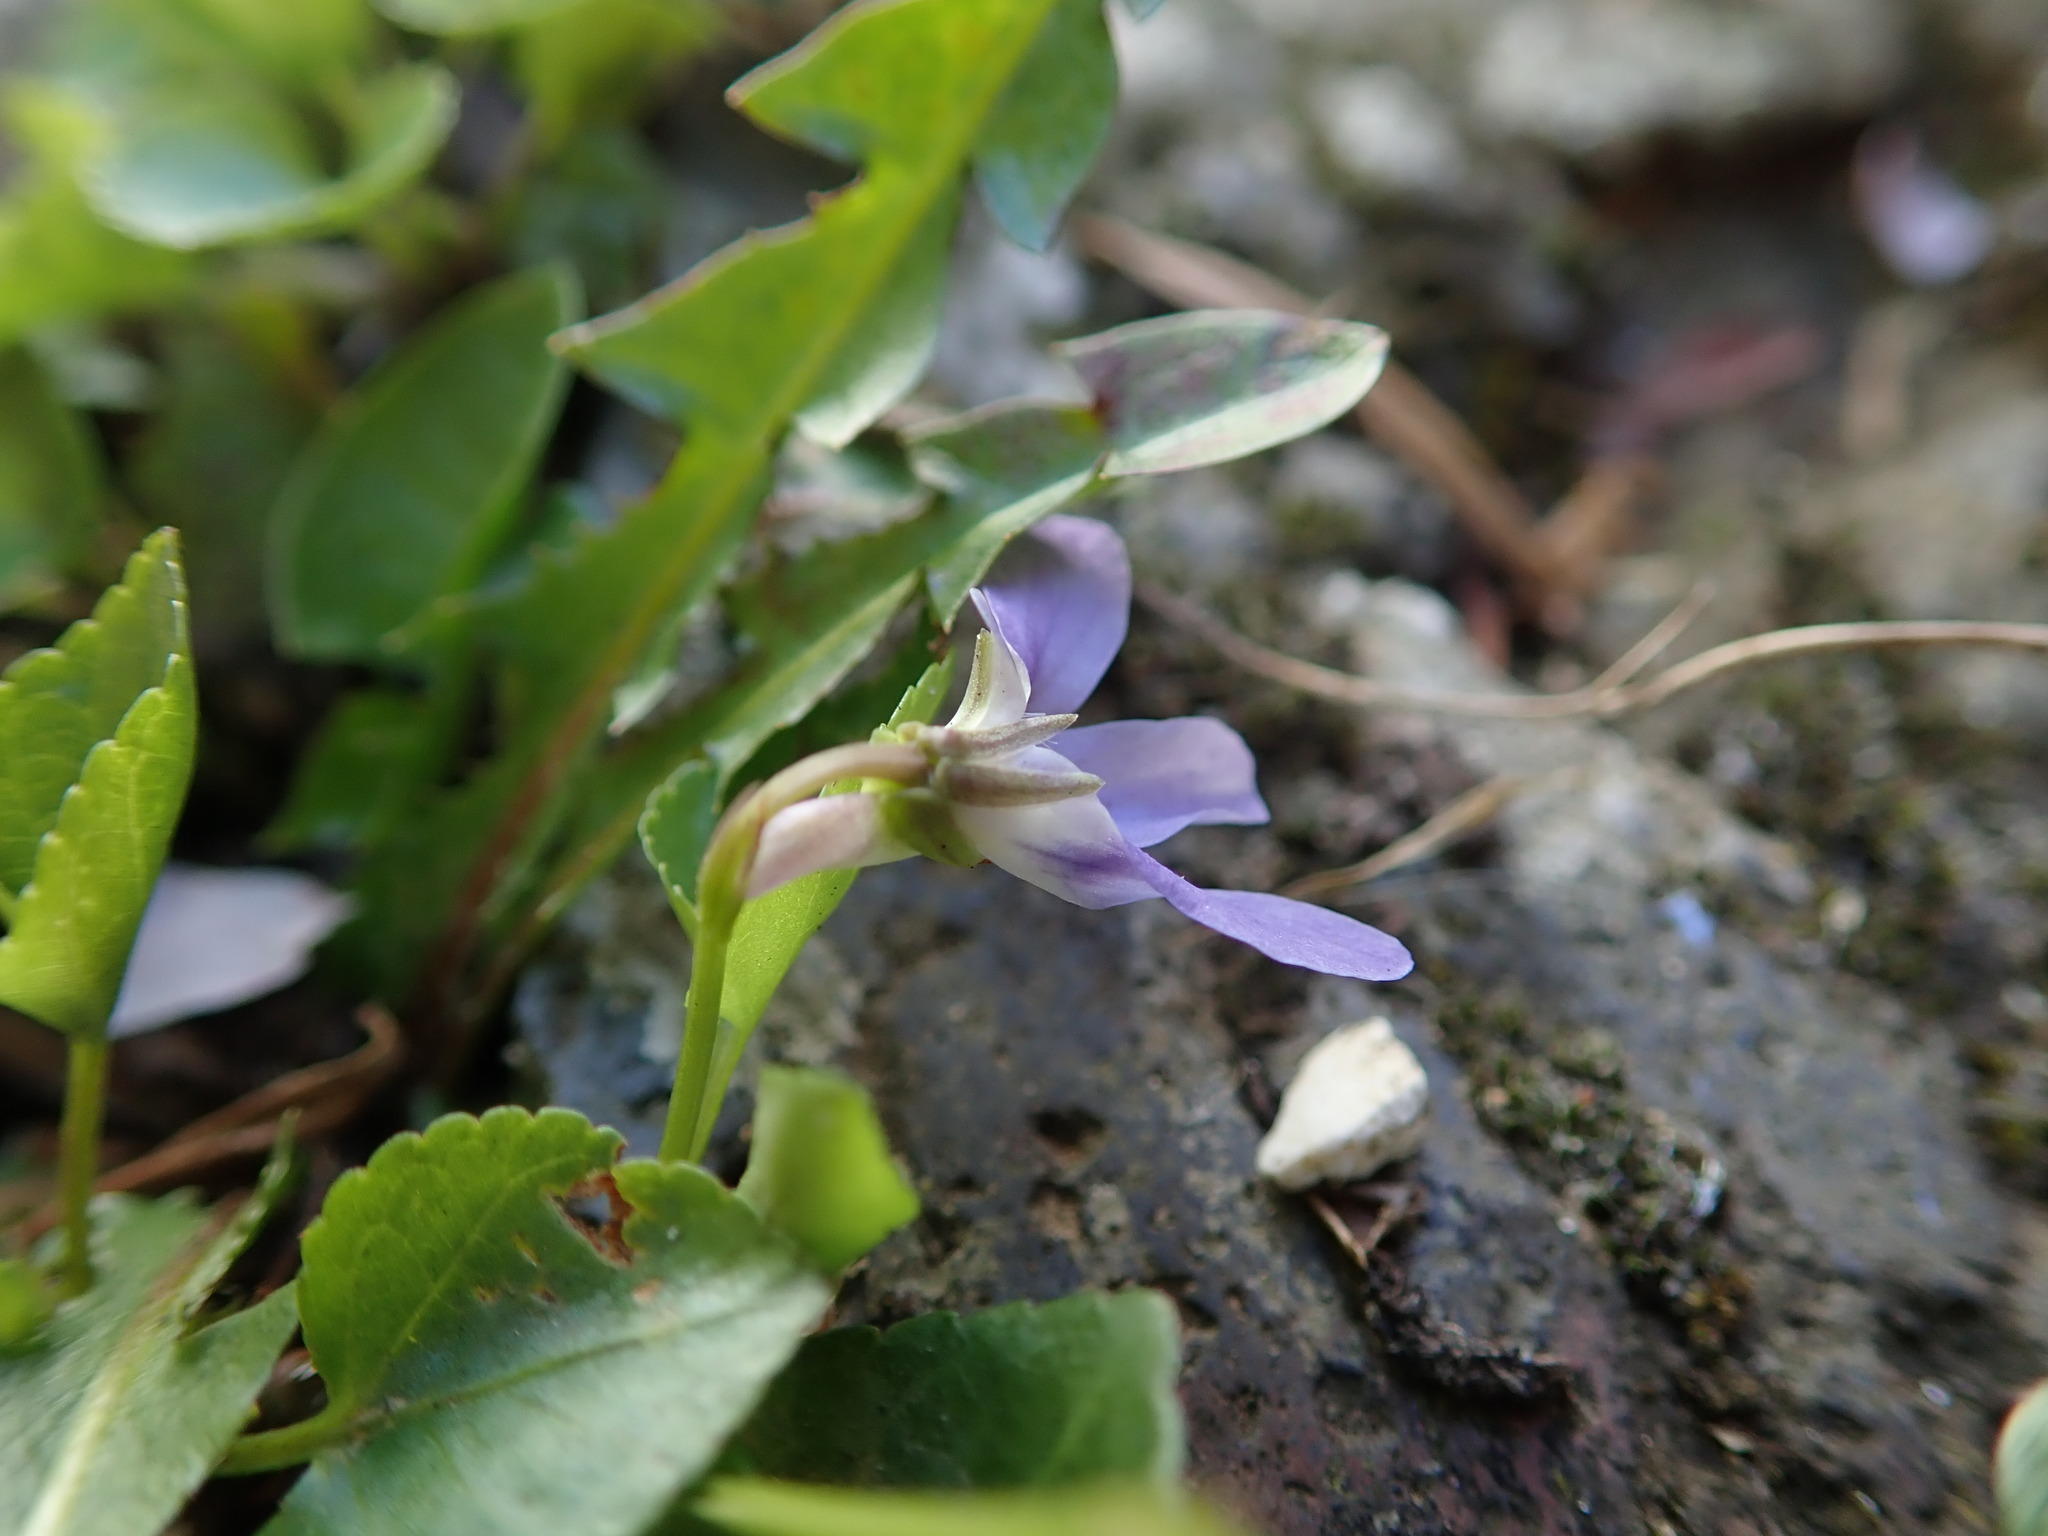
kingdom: Plantae
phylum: Tracheophyta
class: Magnoliopsida
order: Malpighiales
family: Violaceae
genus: Viola
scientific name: Viola riviniana
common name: Common dog-violet
